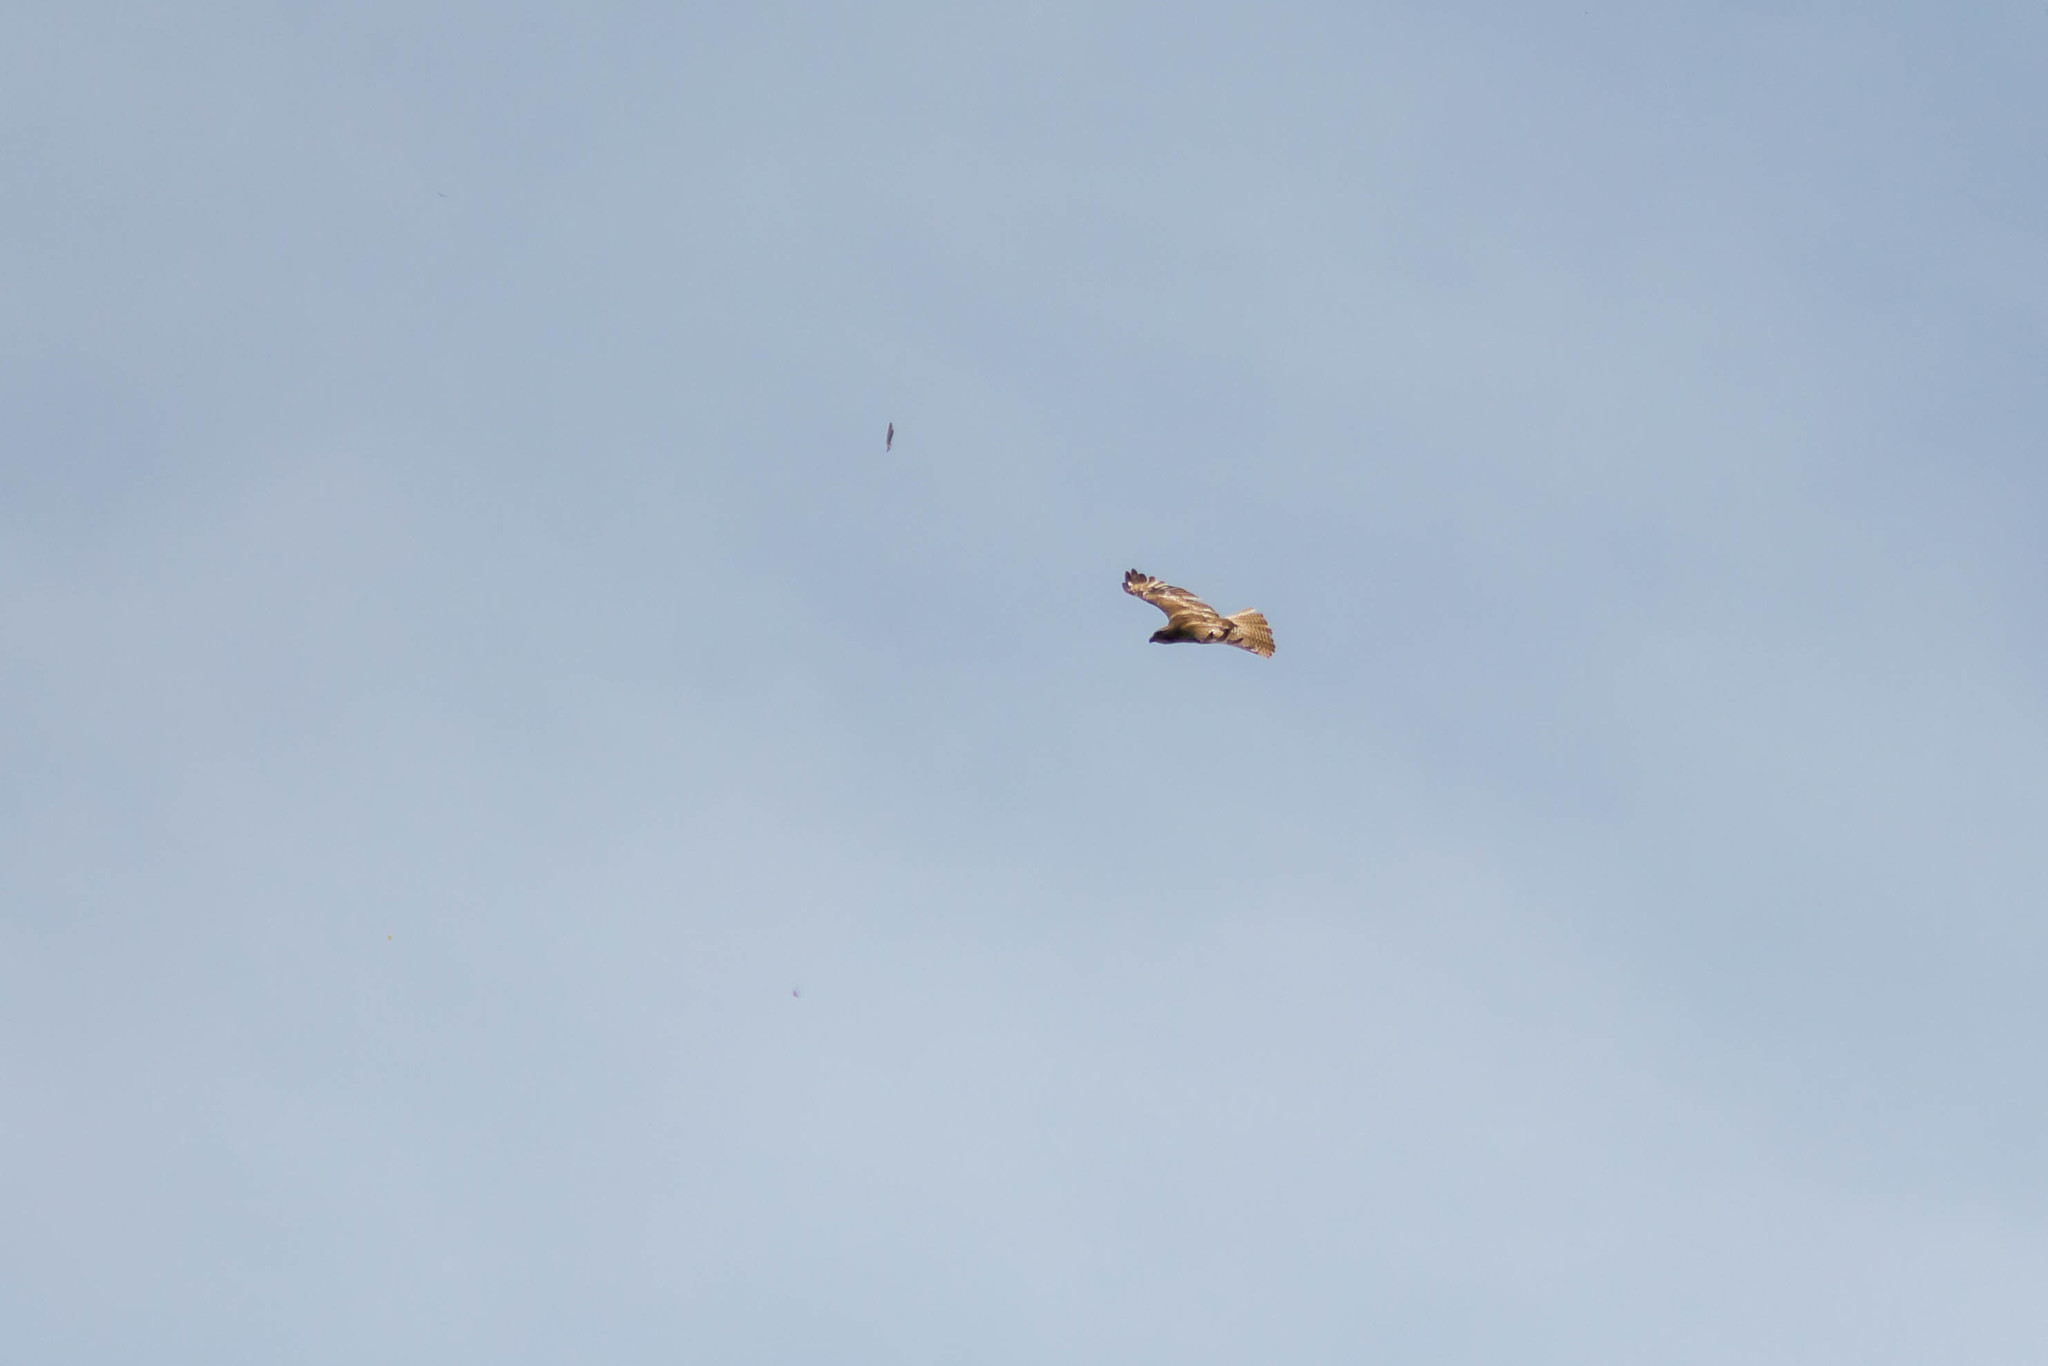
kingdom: Animalia
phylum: Chordata
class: Aves
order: Accipitriformes
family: Accipitridae
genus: Buteo
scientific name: Buteo jamaicensis
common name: Red-tailed hawk
